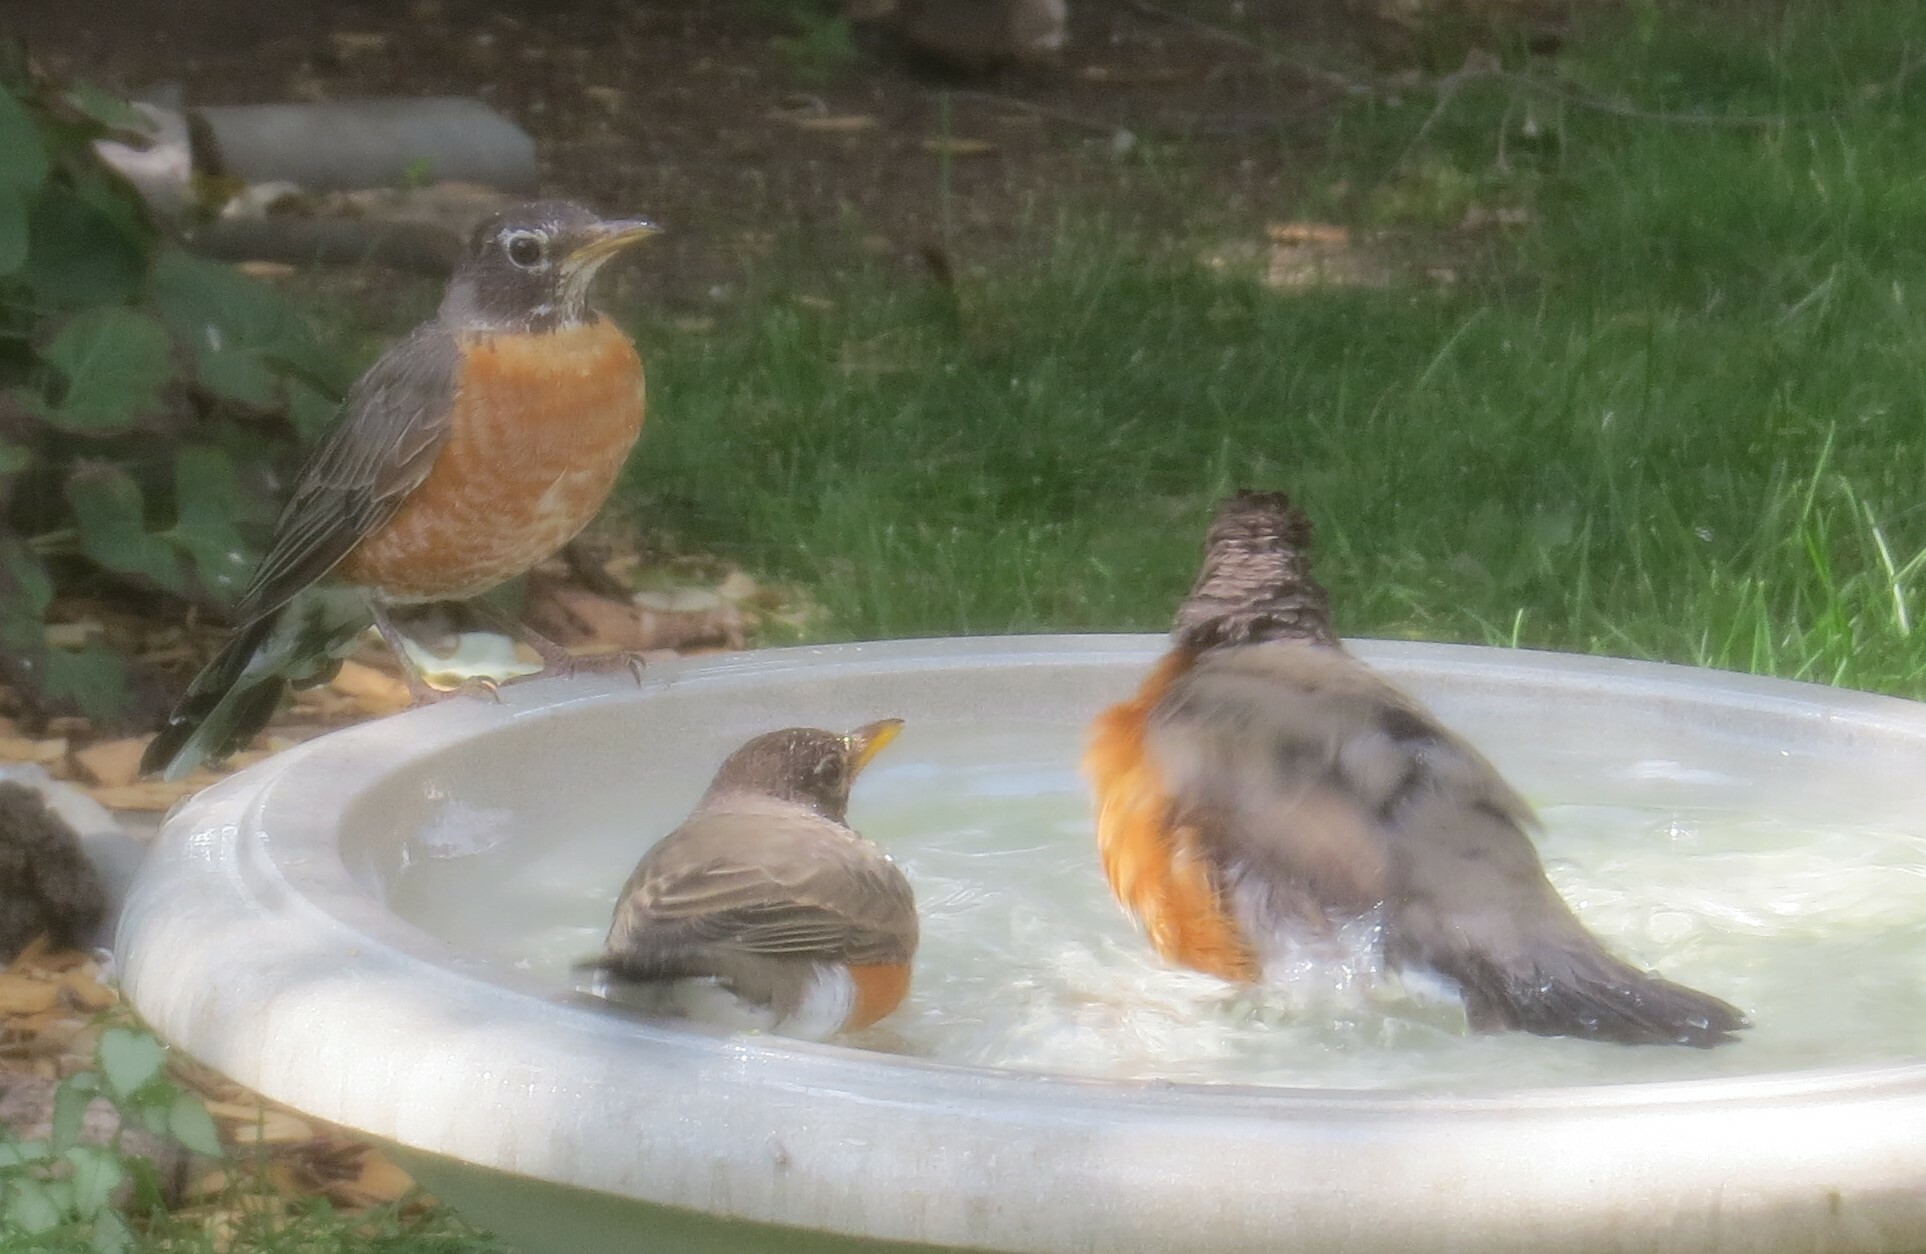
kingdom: Animalia
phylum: Chordata
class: Aves
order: Passeriformes
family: Turdidae
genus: Turdus
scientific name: Turdus migratorius
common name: American robin
